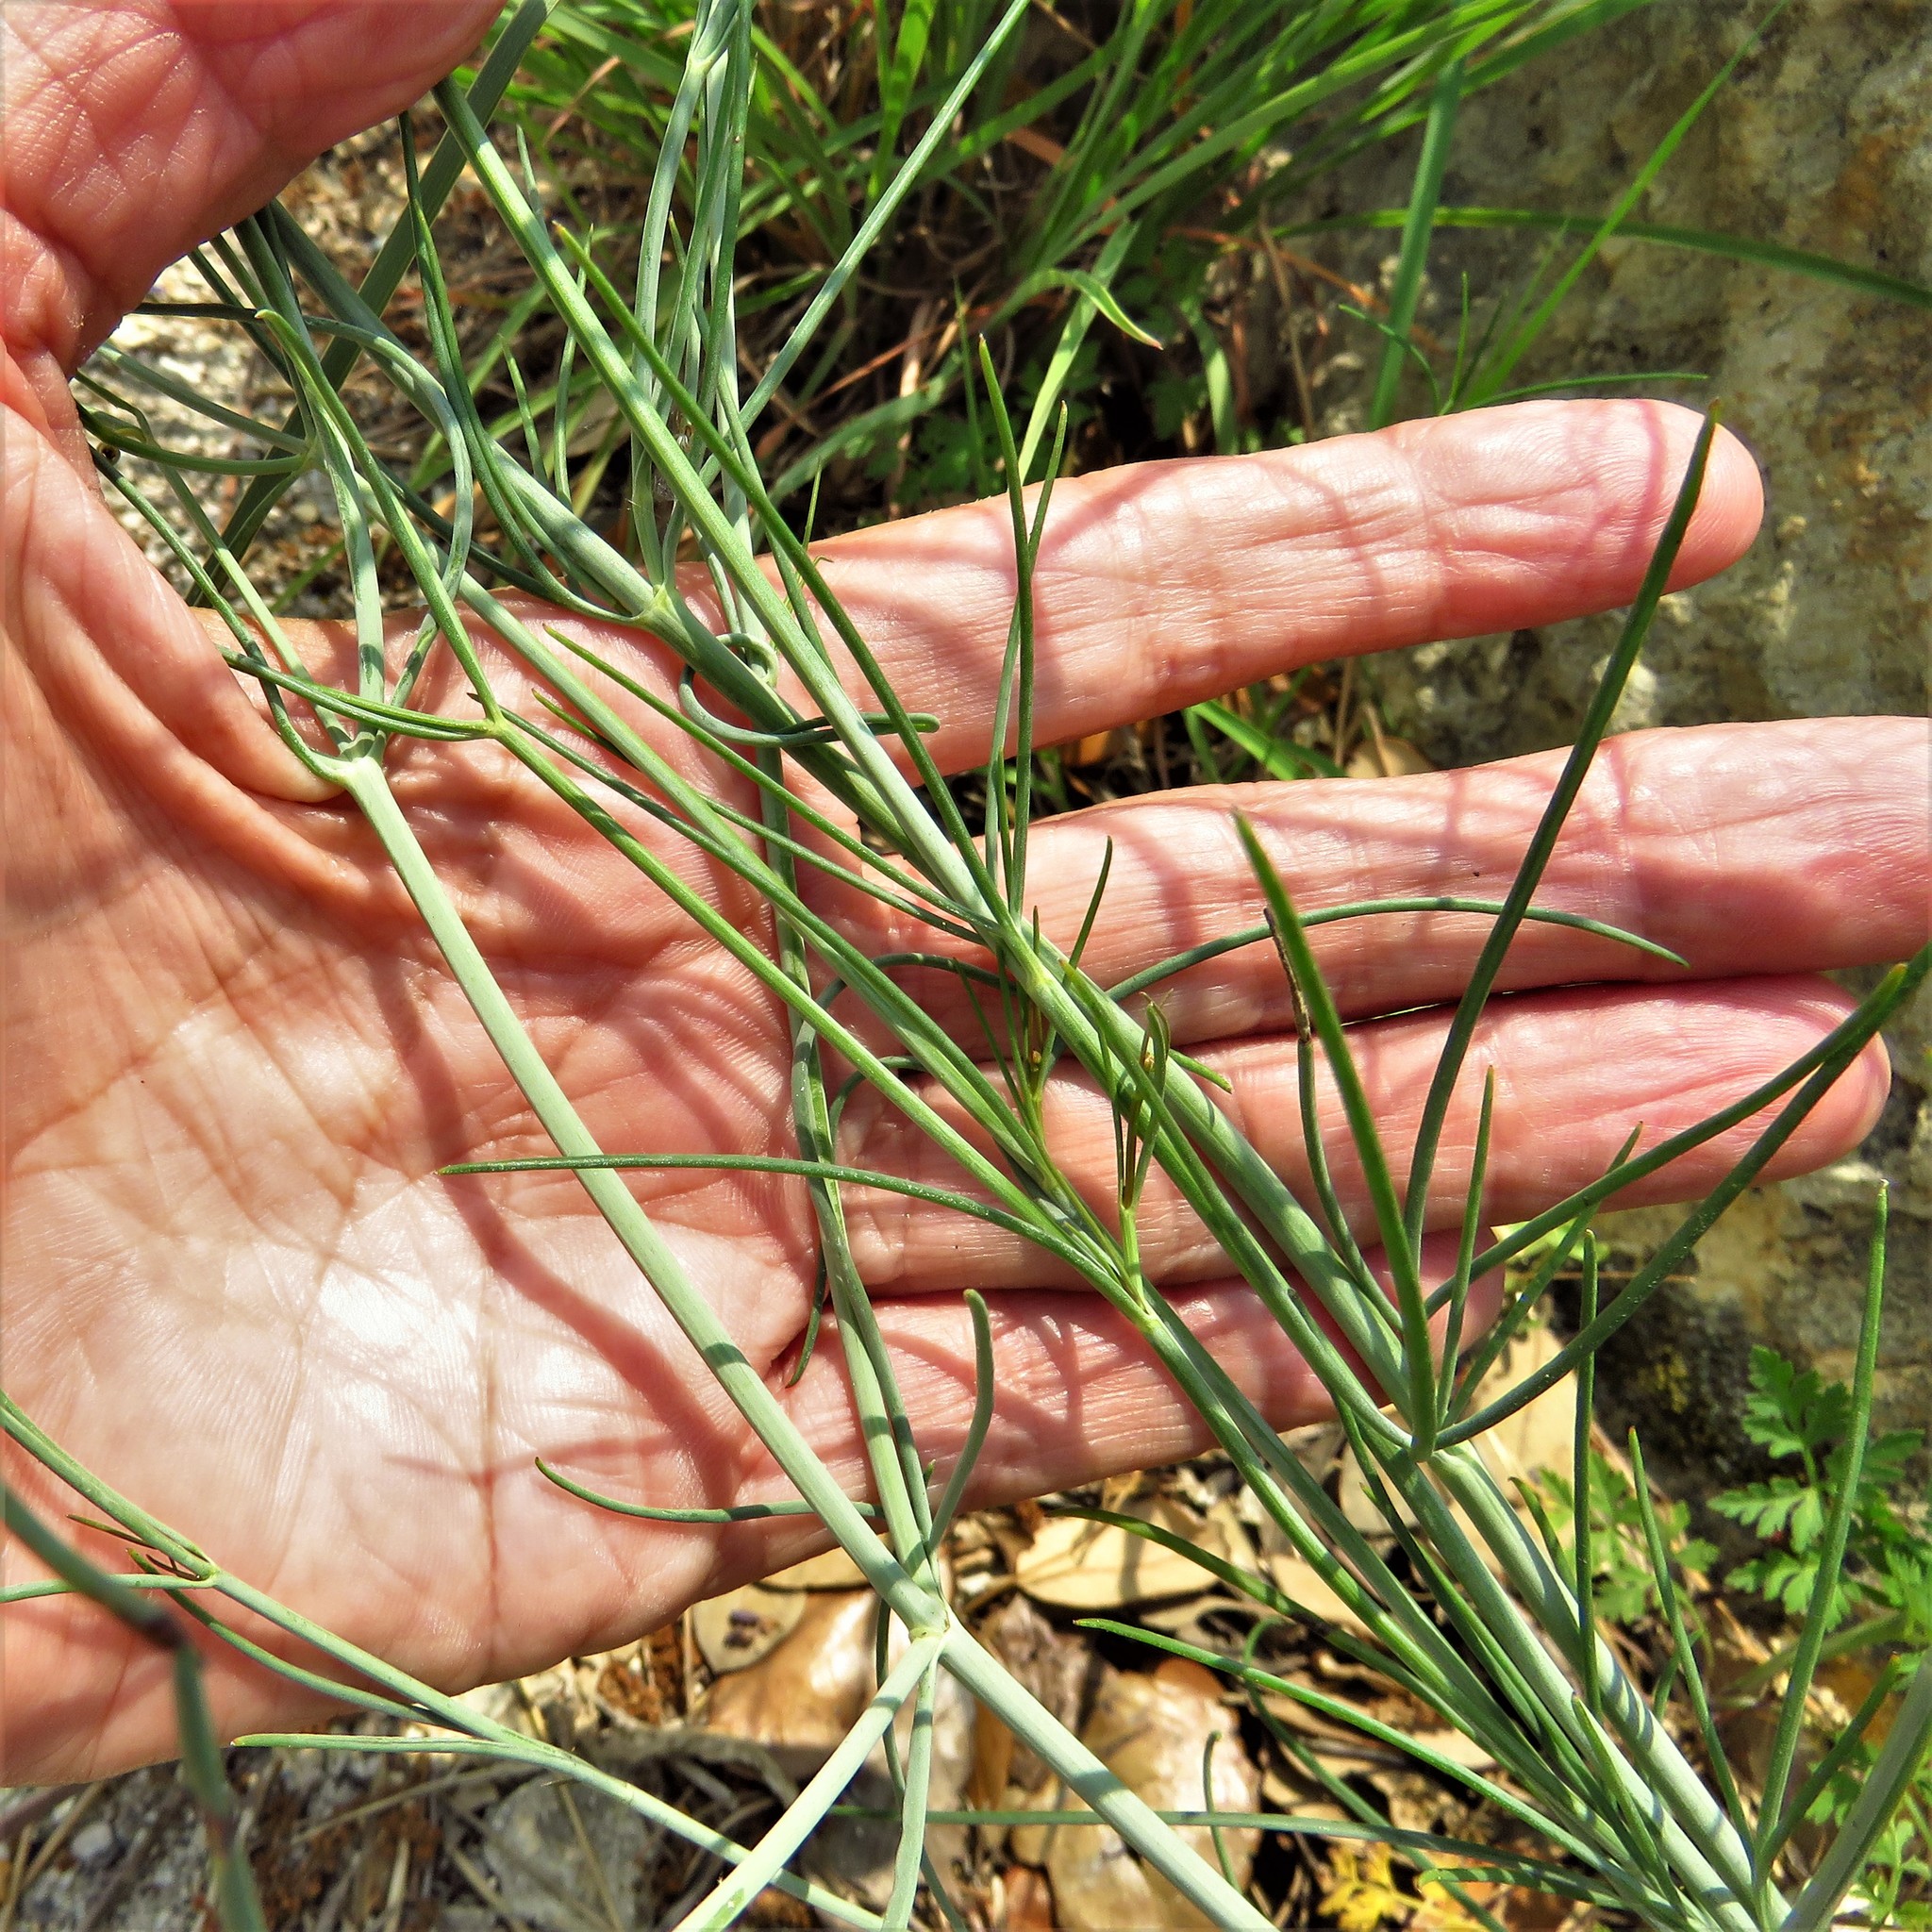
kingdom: Plantae
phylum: Tracheophyta
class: Magnoliopsida
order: Asterales
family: Asteraceae
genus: Thelesperma
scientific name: Thelesperma simplicifolium
